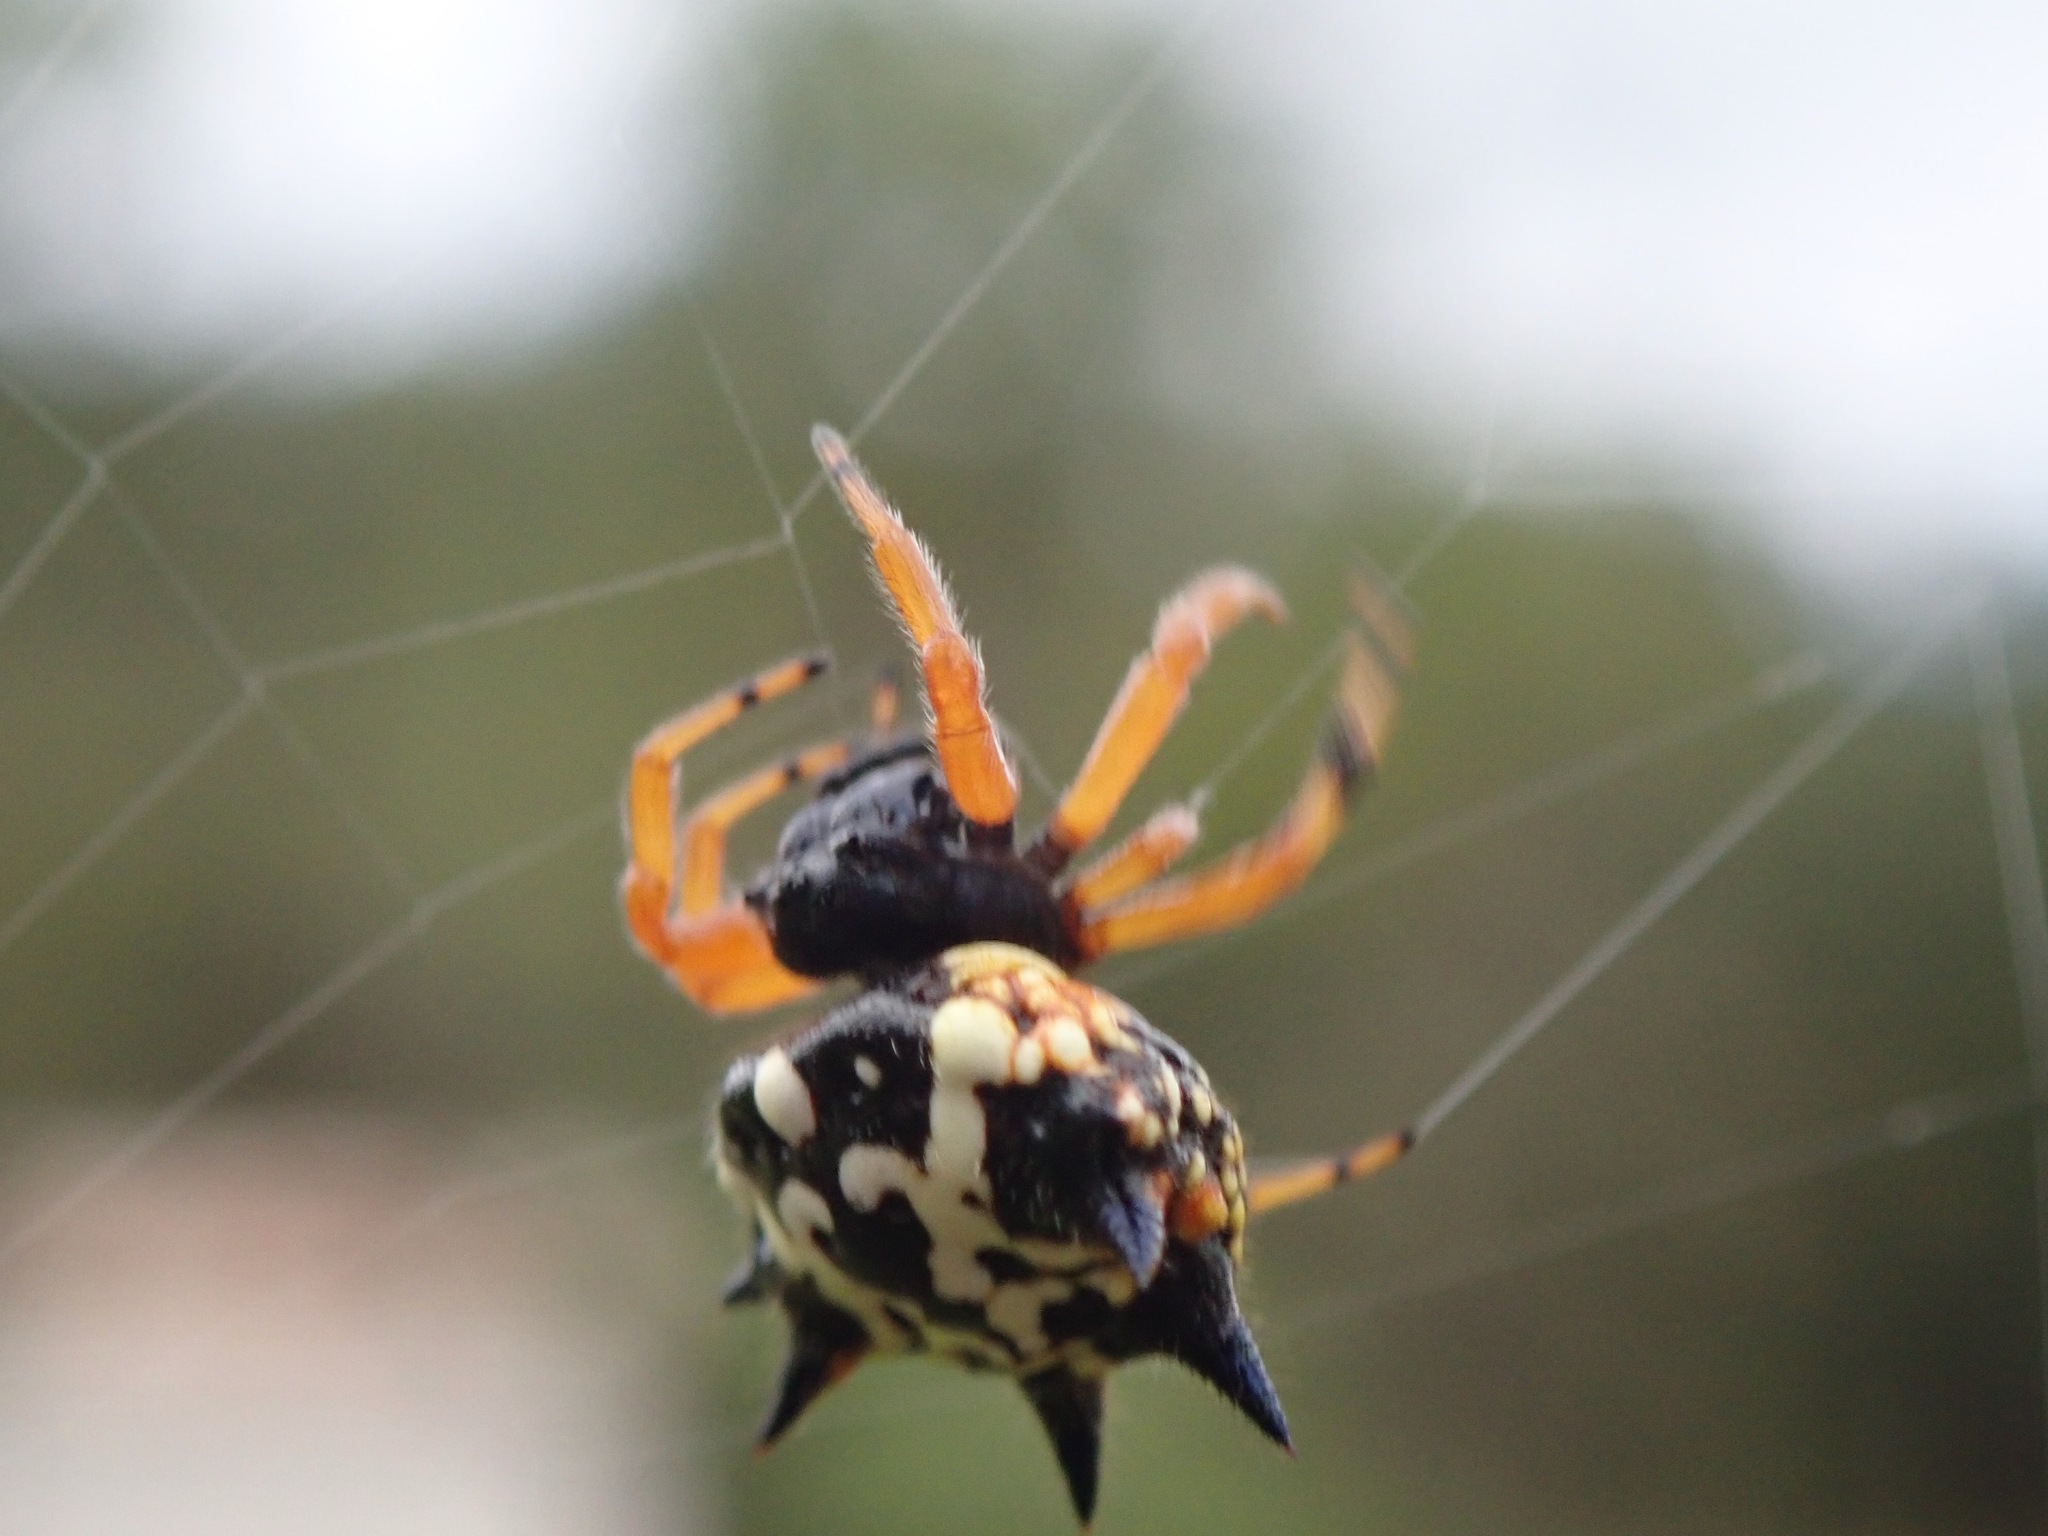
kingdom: Animalia
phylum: Arthropoda
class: Arachnida
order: Araneae
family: Araneidae
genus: Austracantha
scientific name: Austracantha minax
